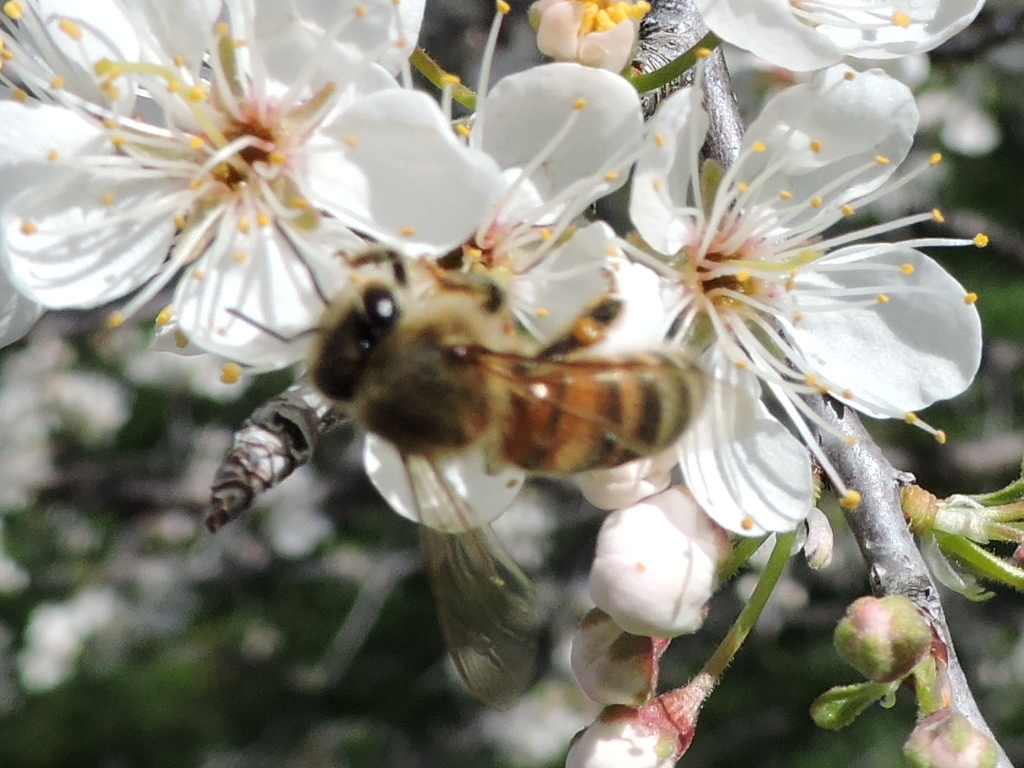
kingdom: Animalia
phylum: Arthropoda
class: Insecta
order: Hymenoptera
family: Apidae
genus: Apis
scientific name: Apis mellifera
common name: Honey bee
